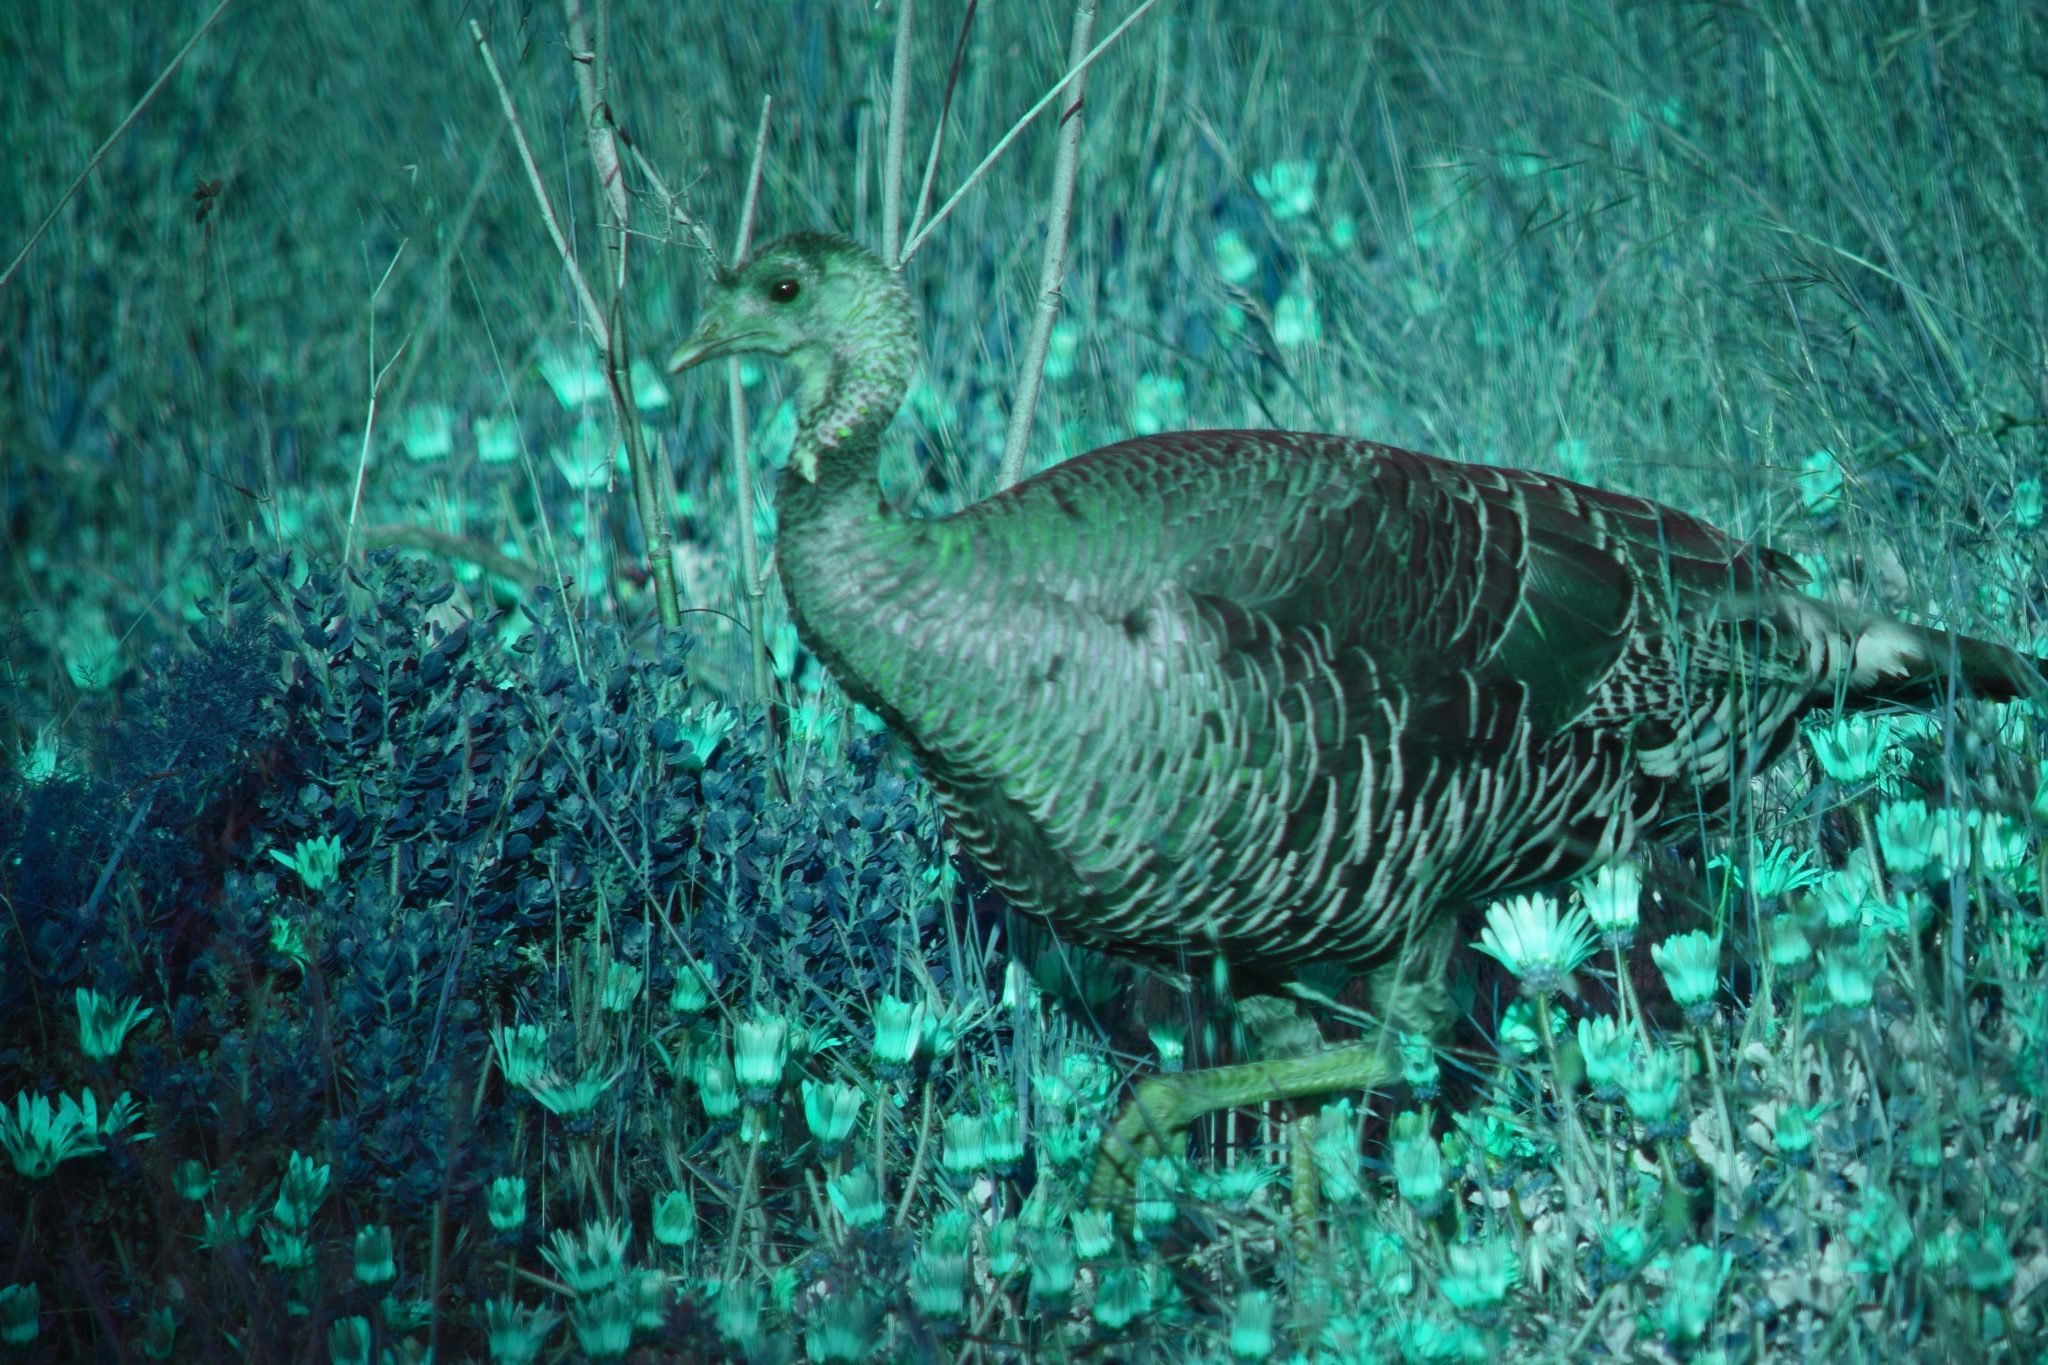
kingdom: Animalia
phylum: Chordata
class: Aves
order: Galliformes
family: Phasianidae
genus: Meleagris
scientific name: Meleagris gallopavo
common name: Wild turkey
